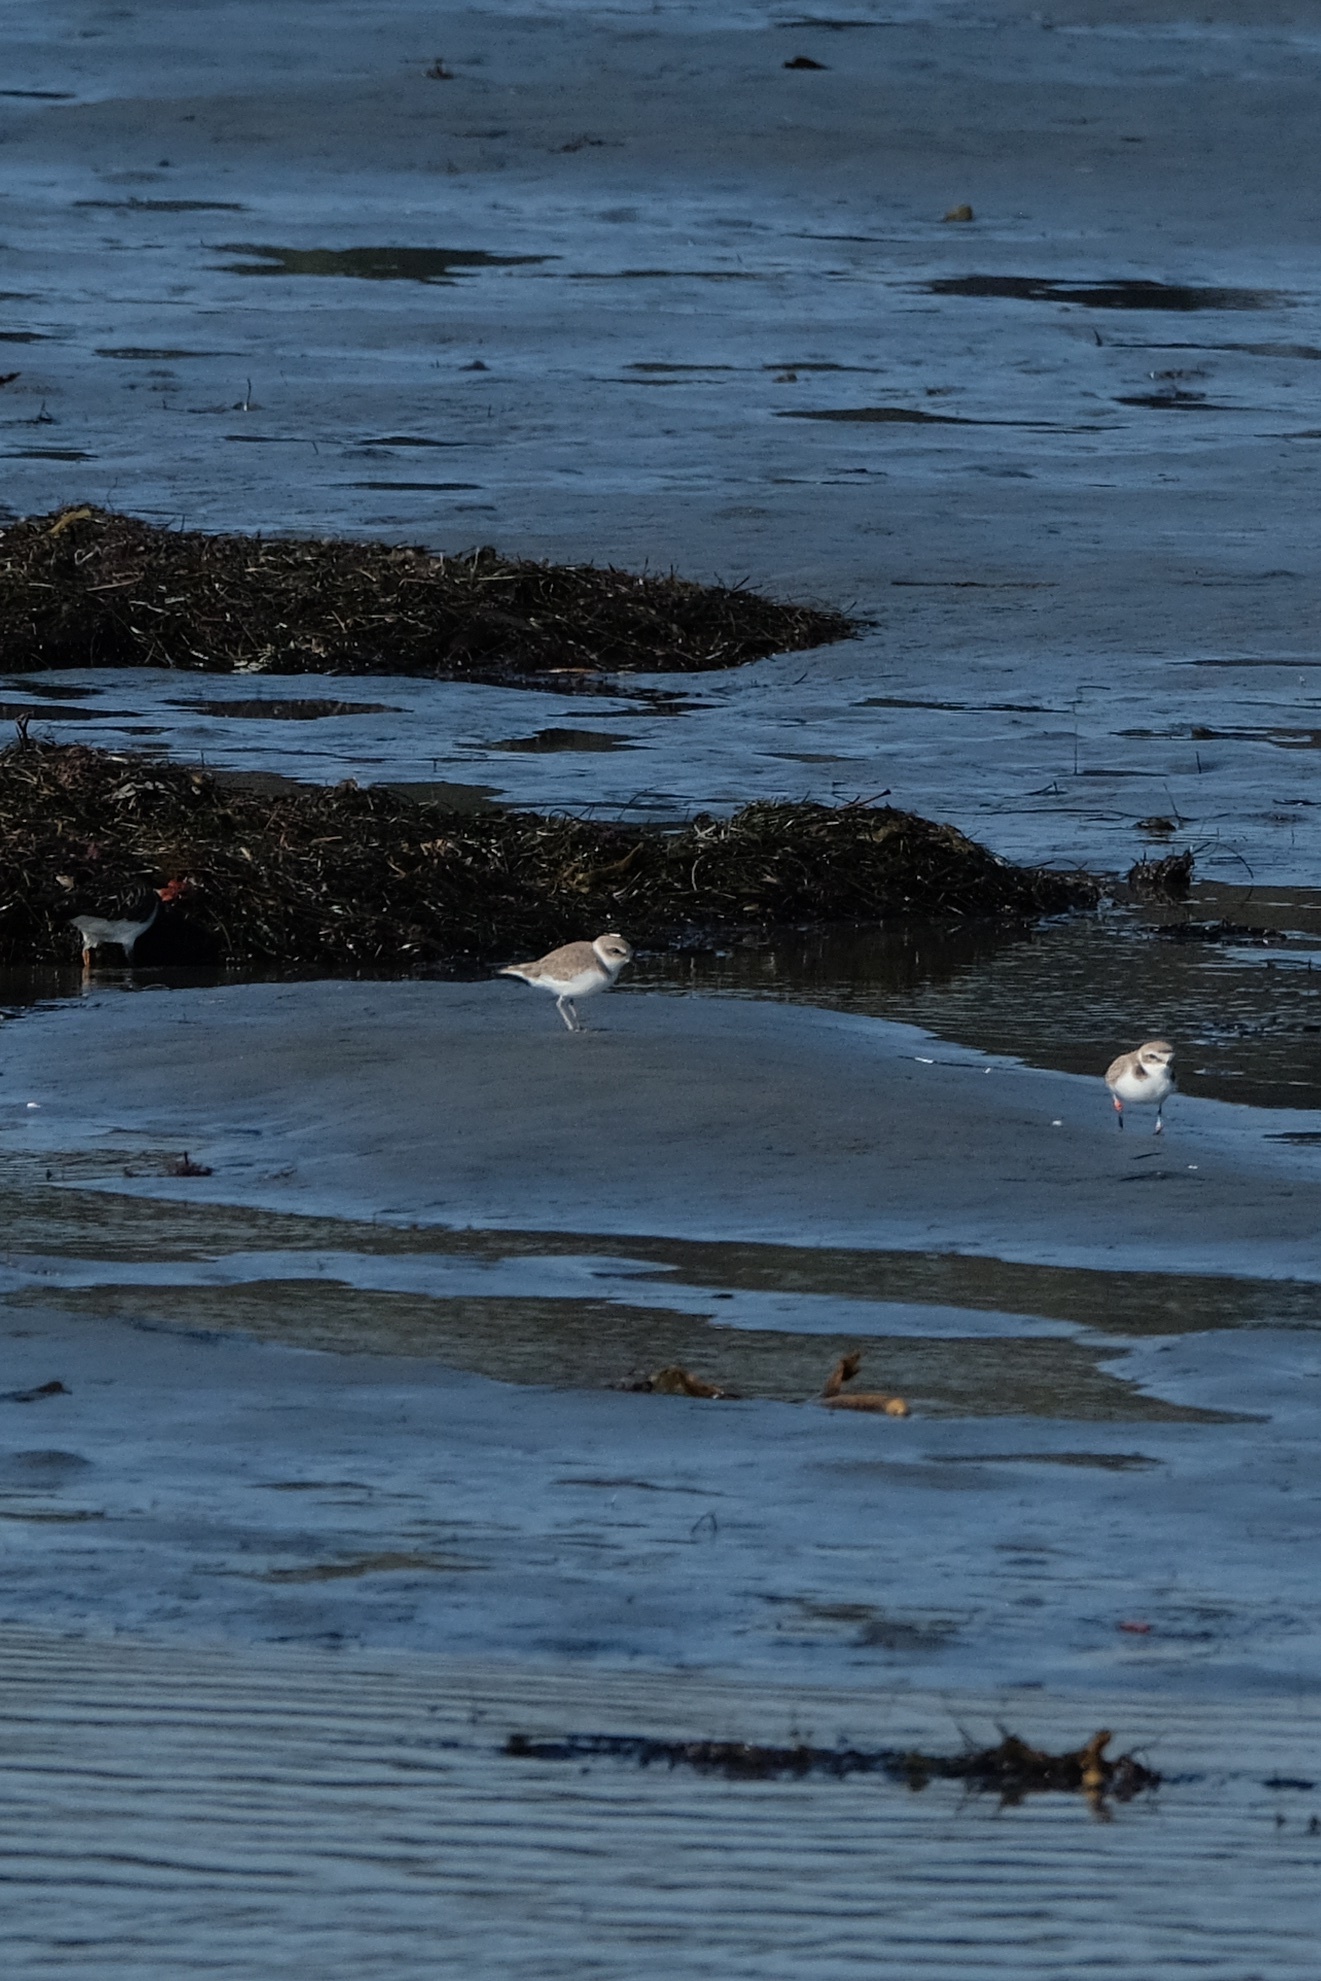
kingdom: Animalia
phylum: Chordata
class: Aves
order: Charadriiformes
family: Charadriidae
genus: Anarhynchus
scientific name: Anarhynchus
